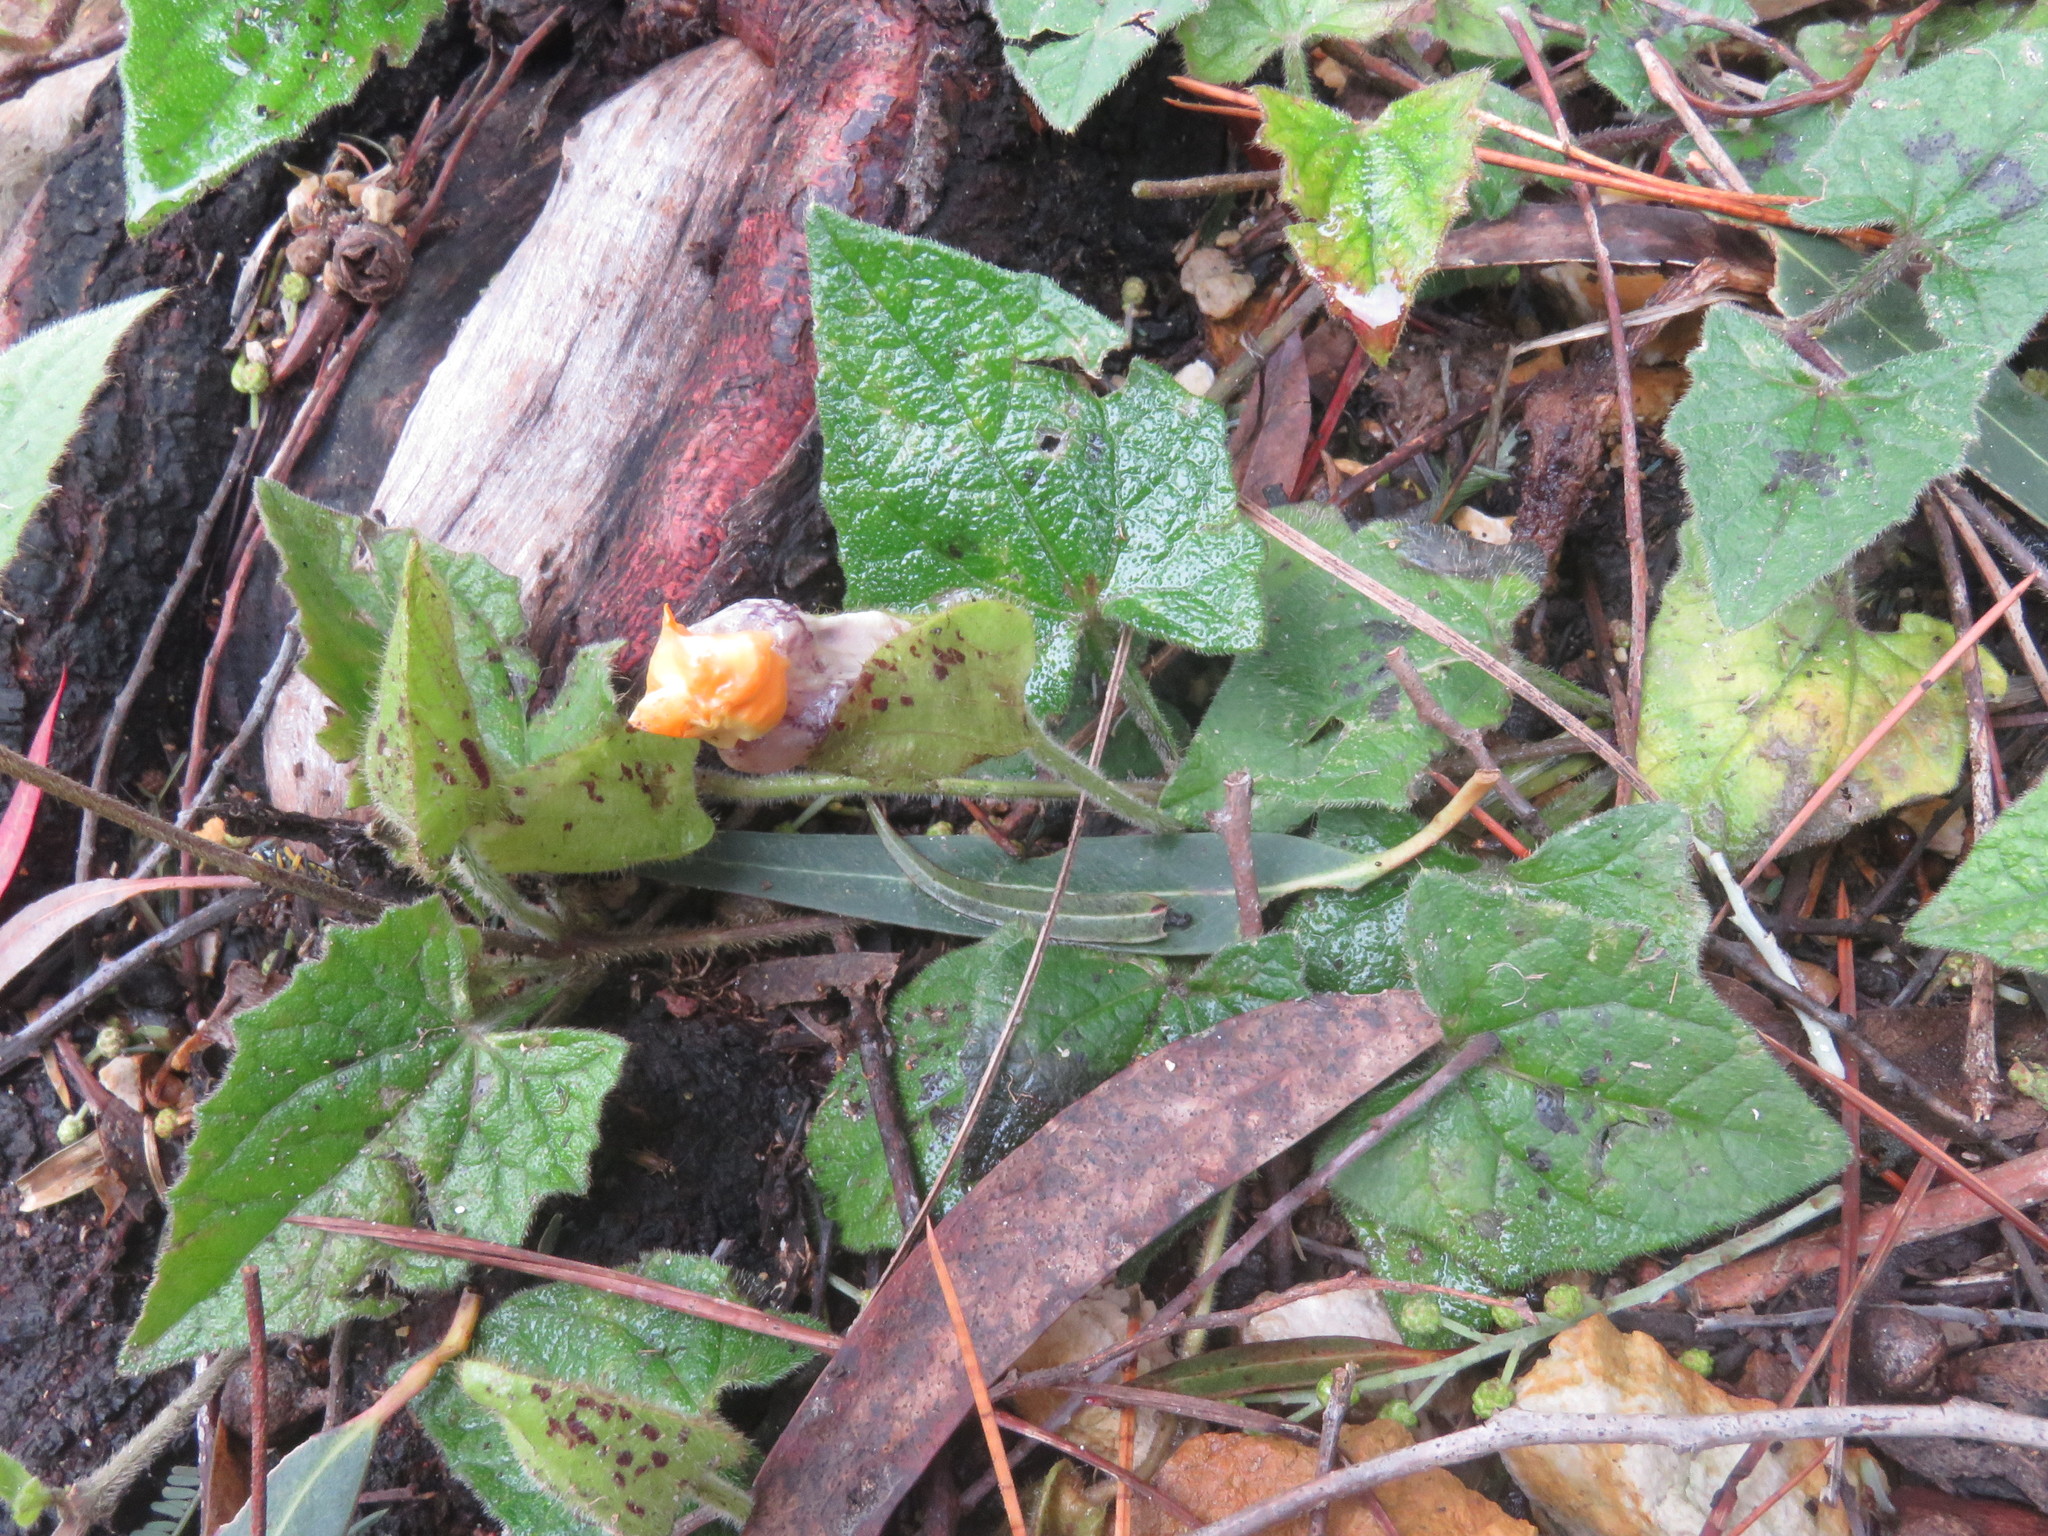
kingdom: Plantae
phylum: Tracheophyta
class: Magnoliopsida
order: Lamiales
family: Acanthaceae
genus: Thunbergia
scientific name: Thunbergia alata
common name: Blackeyed susan vine
